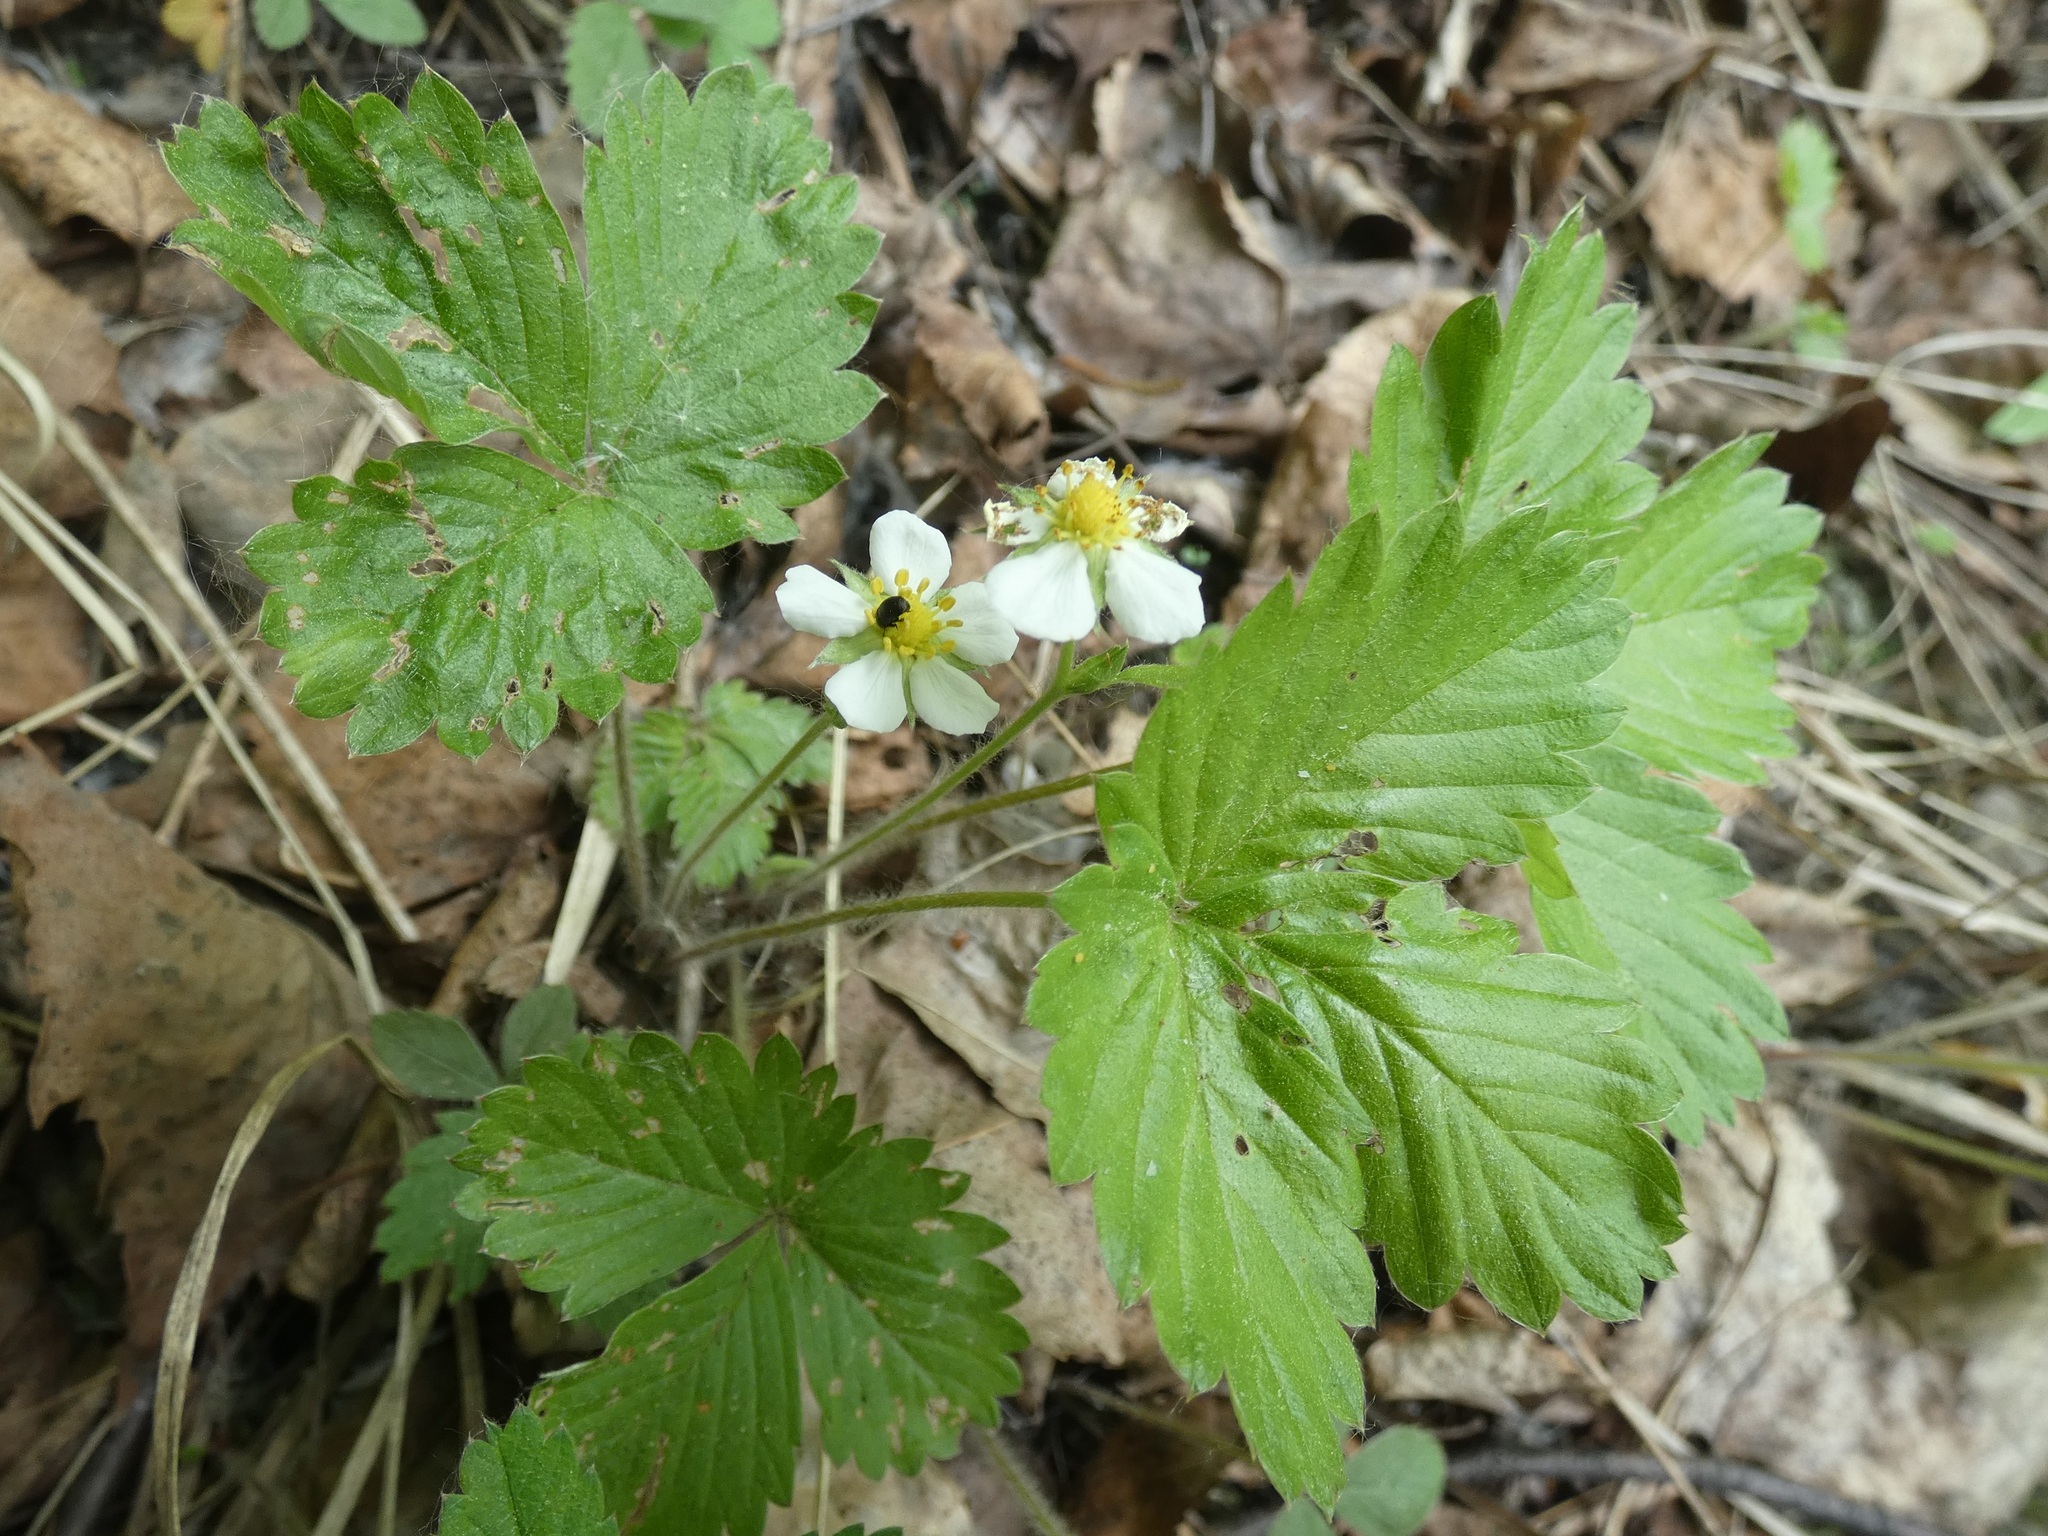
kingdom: Plantae
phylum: Tracheophyta
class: Magnoliopsida
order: Rosales
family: Rosaceae
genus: Fragaria
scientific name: Fragaria vesca
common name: Wild strawberry
